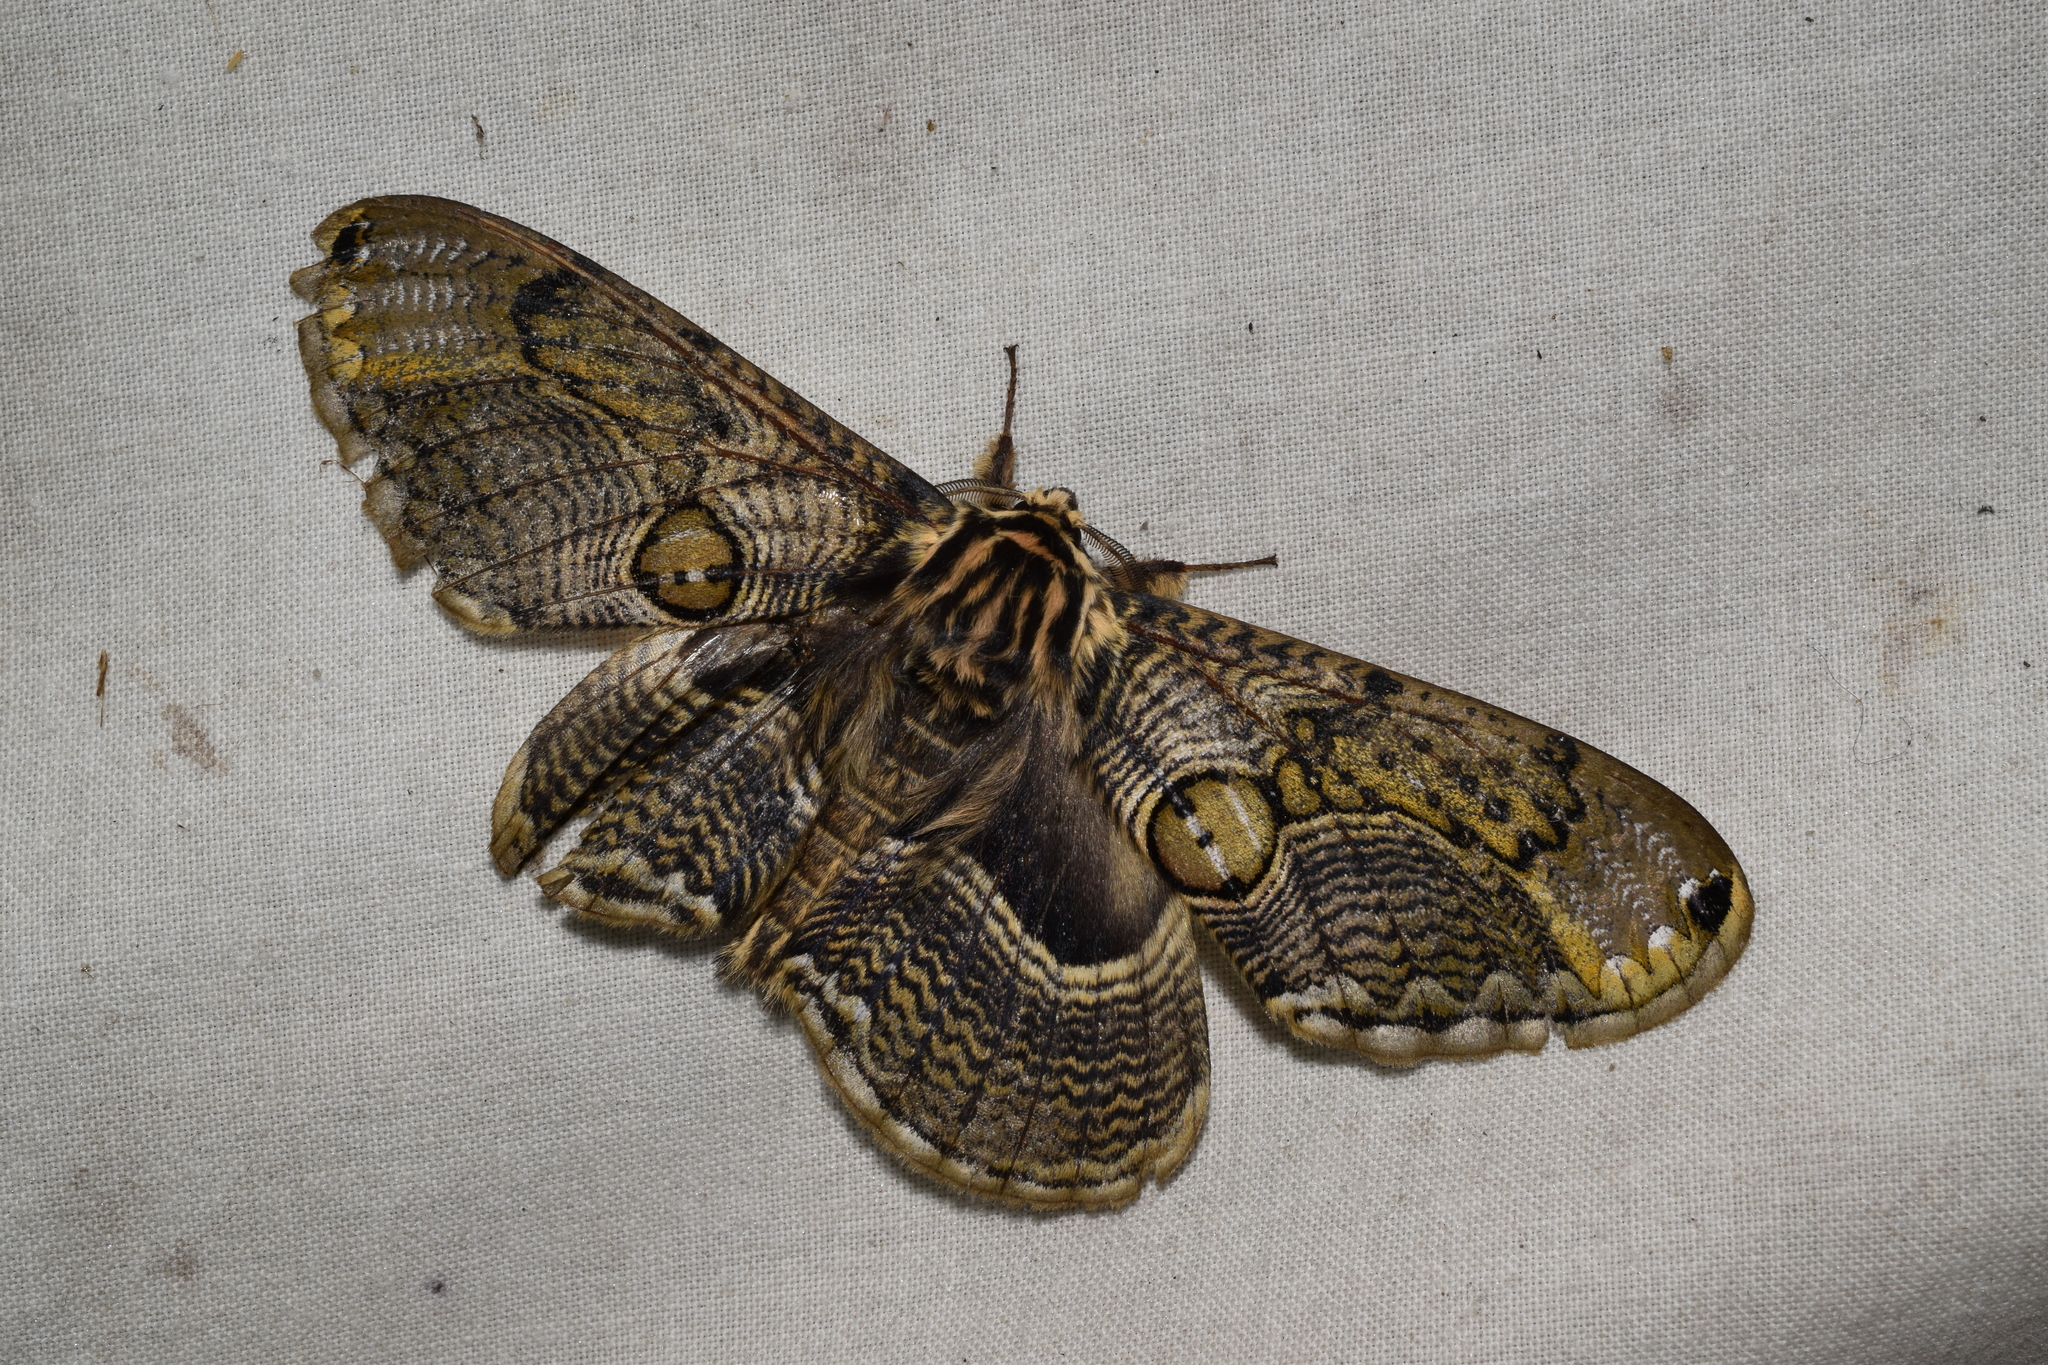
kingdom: Animalia
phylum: Arthropoda
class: Insecta
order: Lepidoptera
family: Brahmaeidae
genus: Brahmaea
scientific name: Brahmaea japonica
